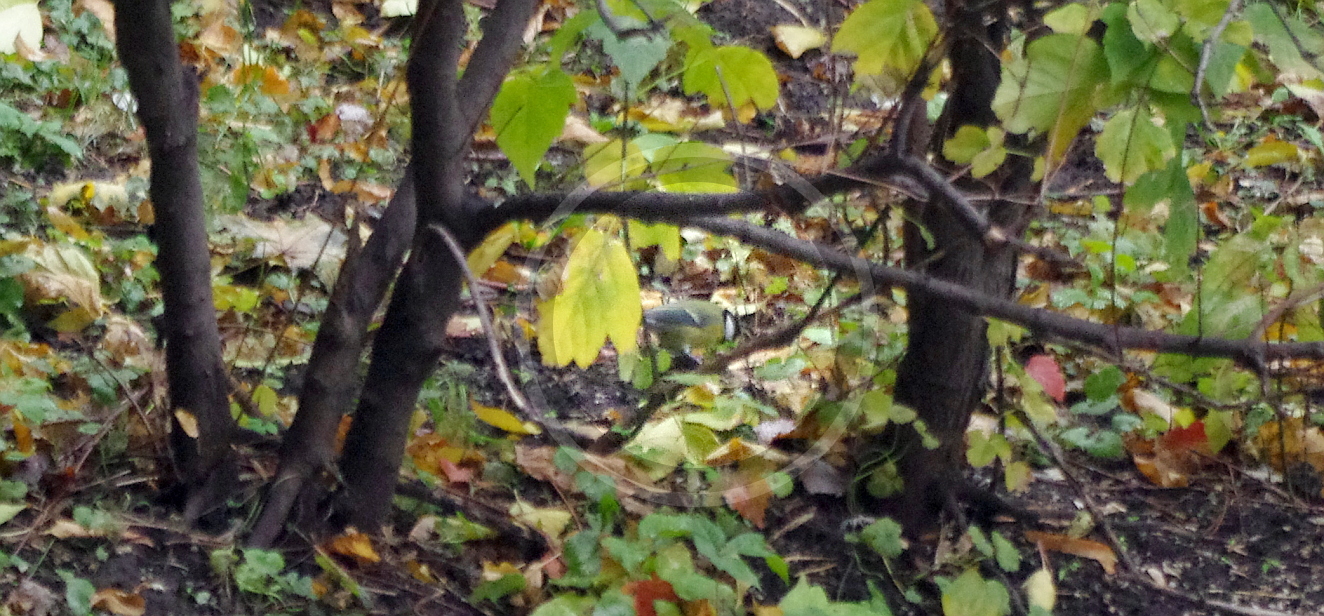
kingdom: Animalia
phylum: Chordata
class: Aves
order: Passeriformes
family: Paridae
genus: Parus
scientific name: Parus major
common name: Great tit
